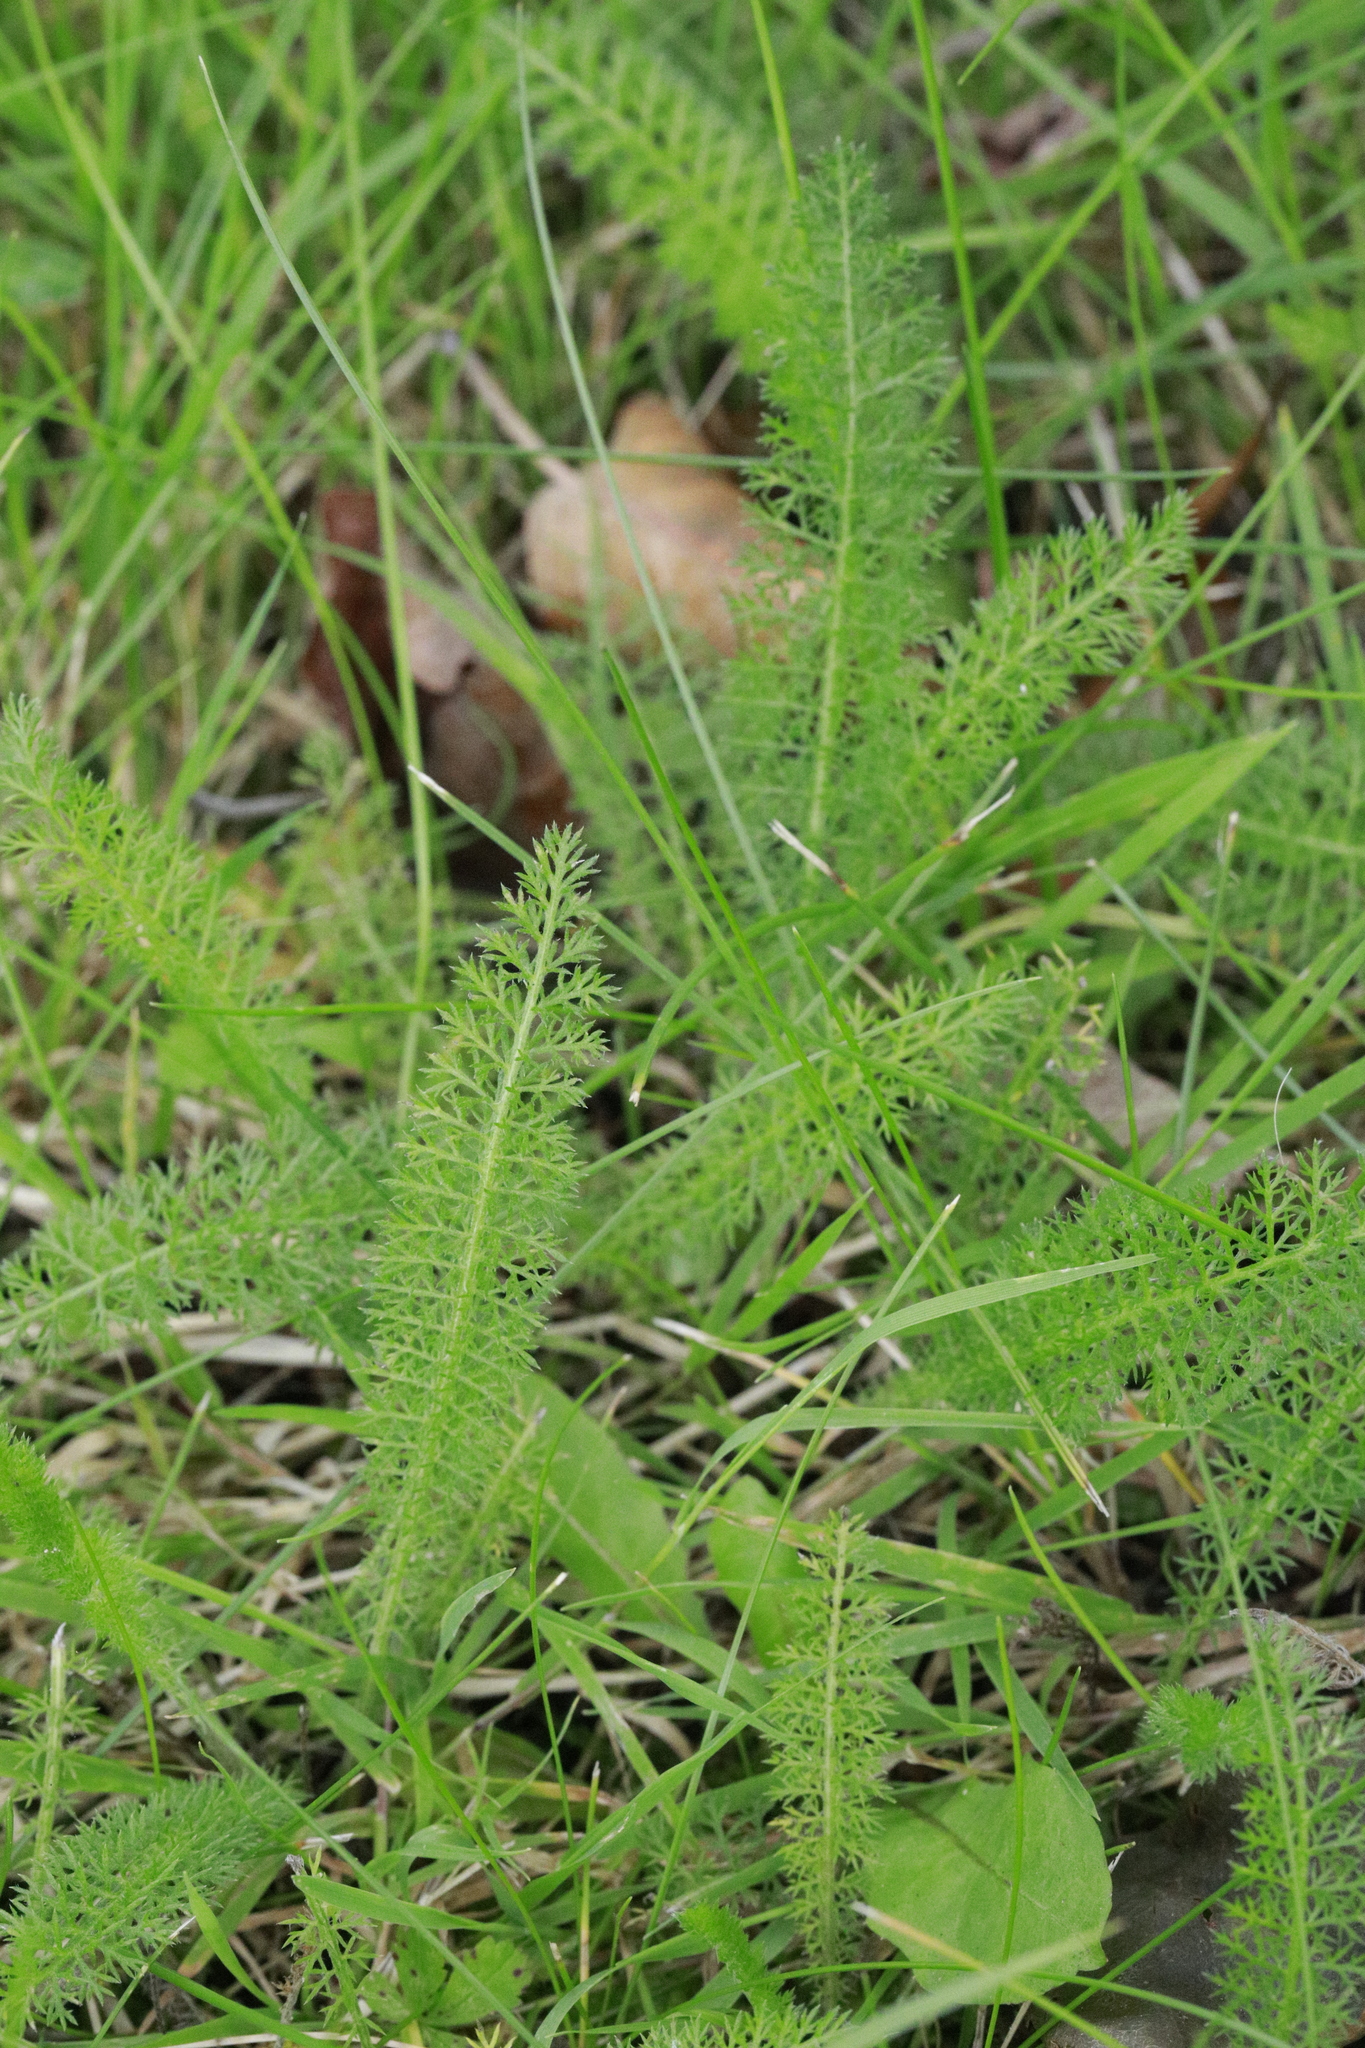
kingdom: Plantae
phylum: Tracheophyta
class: Magnoliopsida
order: Asterales
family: Asteraceae
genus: Achillea
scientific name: Achillea millefolium
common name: Yarrow
